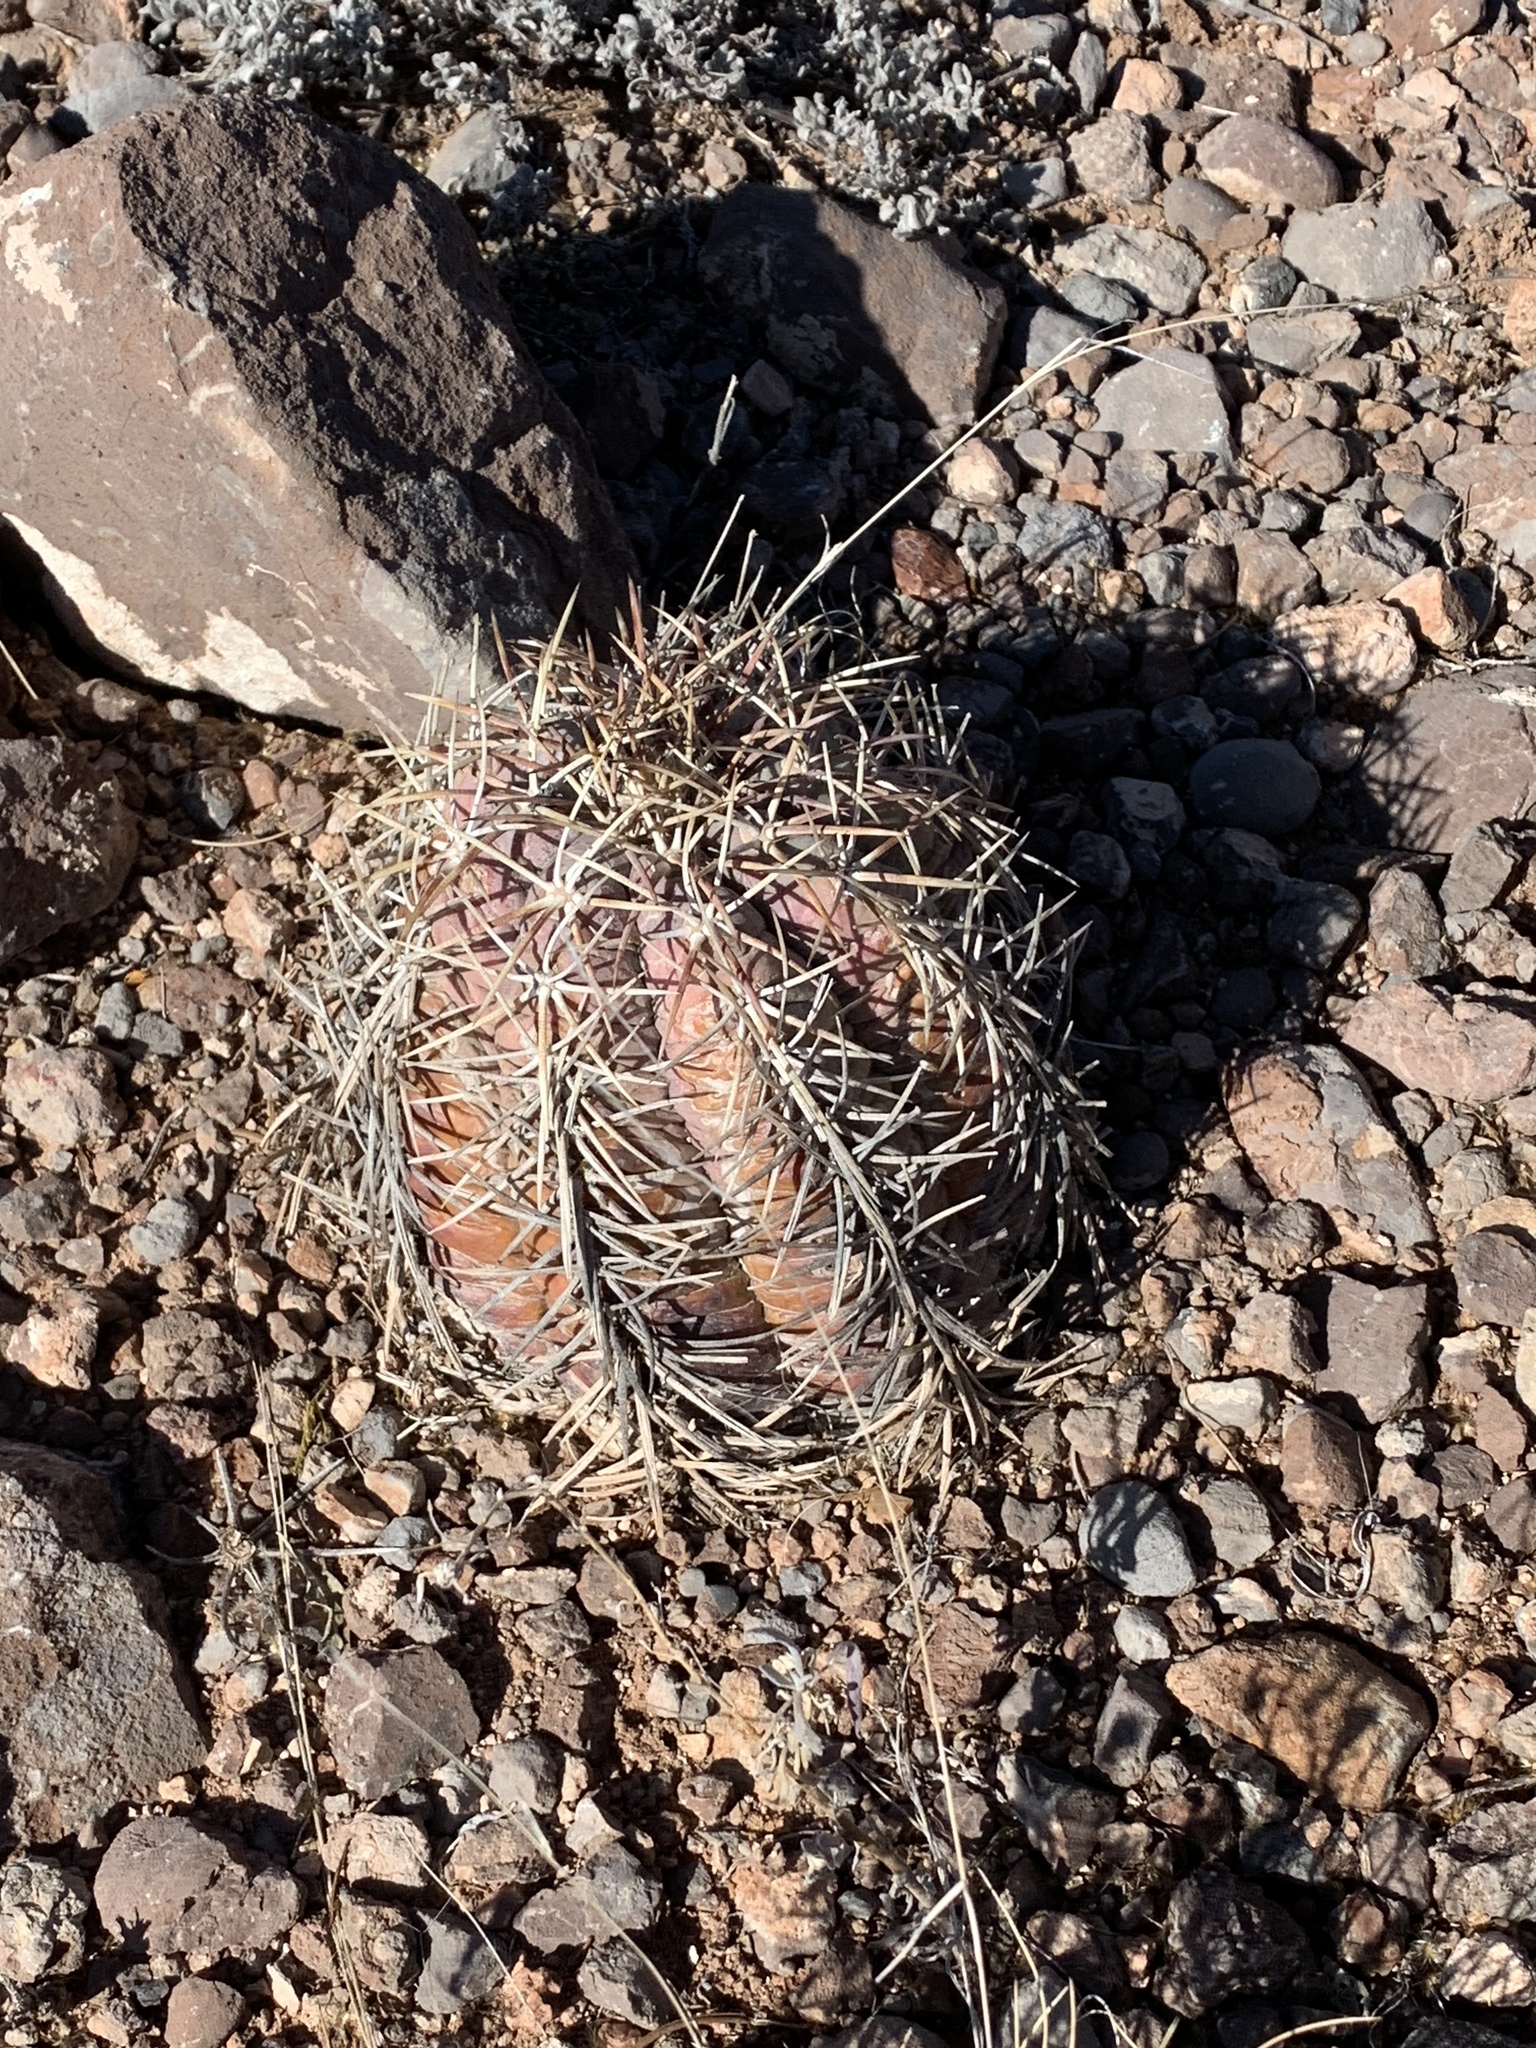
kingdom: Plantae
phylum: Tracheophyta
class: Magnoliopsida
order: Caryophyllales
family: Cactaceae
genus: Echinocactus
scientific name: Echinocactus horizonthalonius
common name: Devilshead
